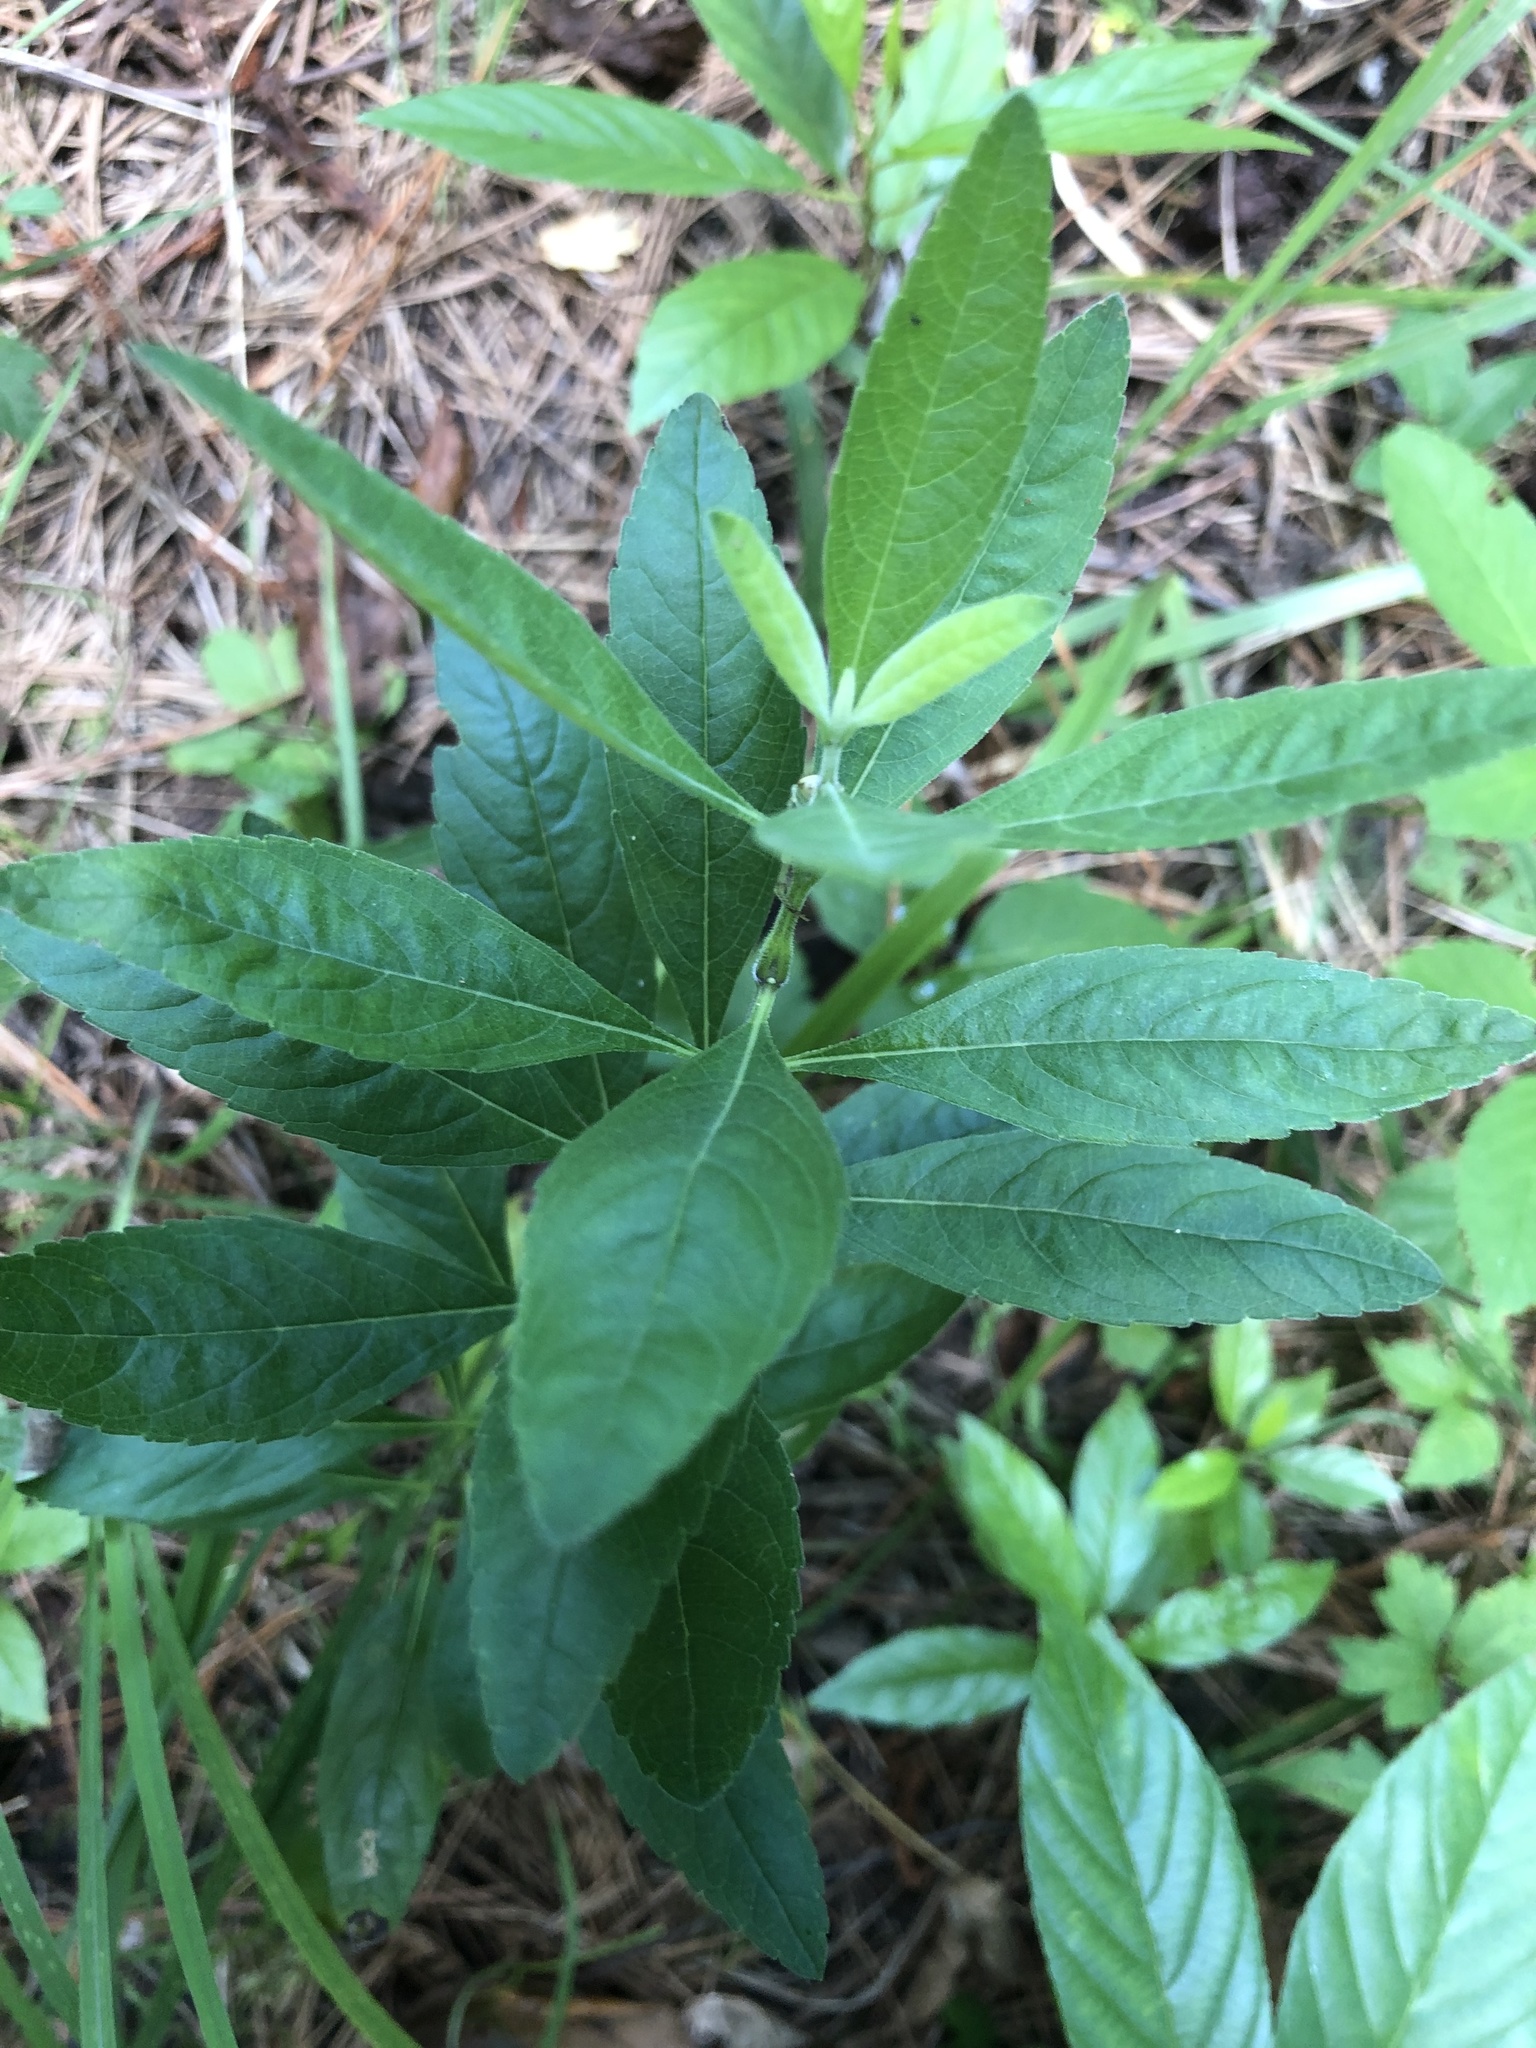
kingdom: Plantae
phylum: Tracheophyta
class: Magnoliopsida
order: Lamiales
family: Lamiaceae
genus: Salvia
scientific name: Salvia azurea
